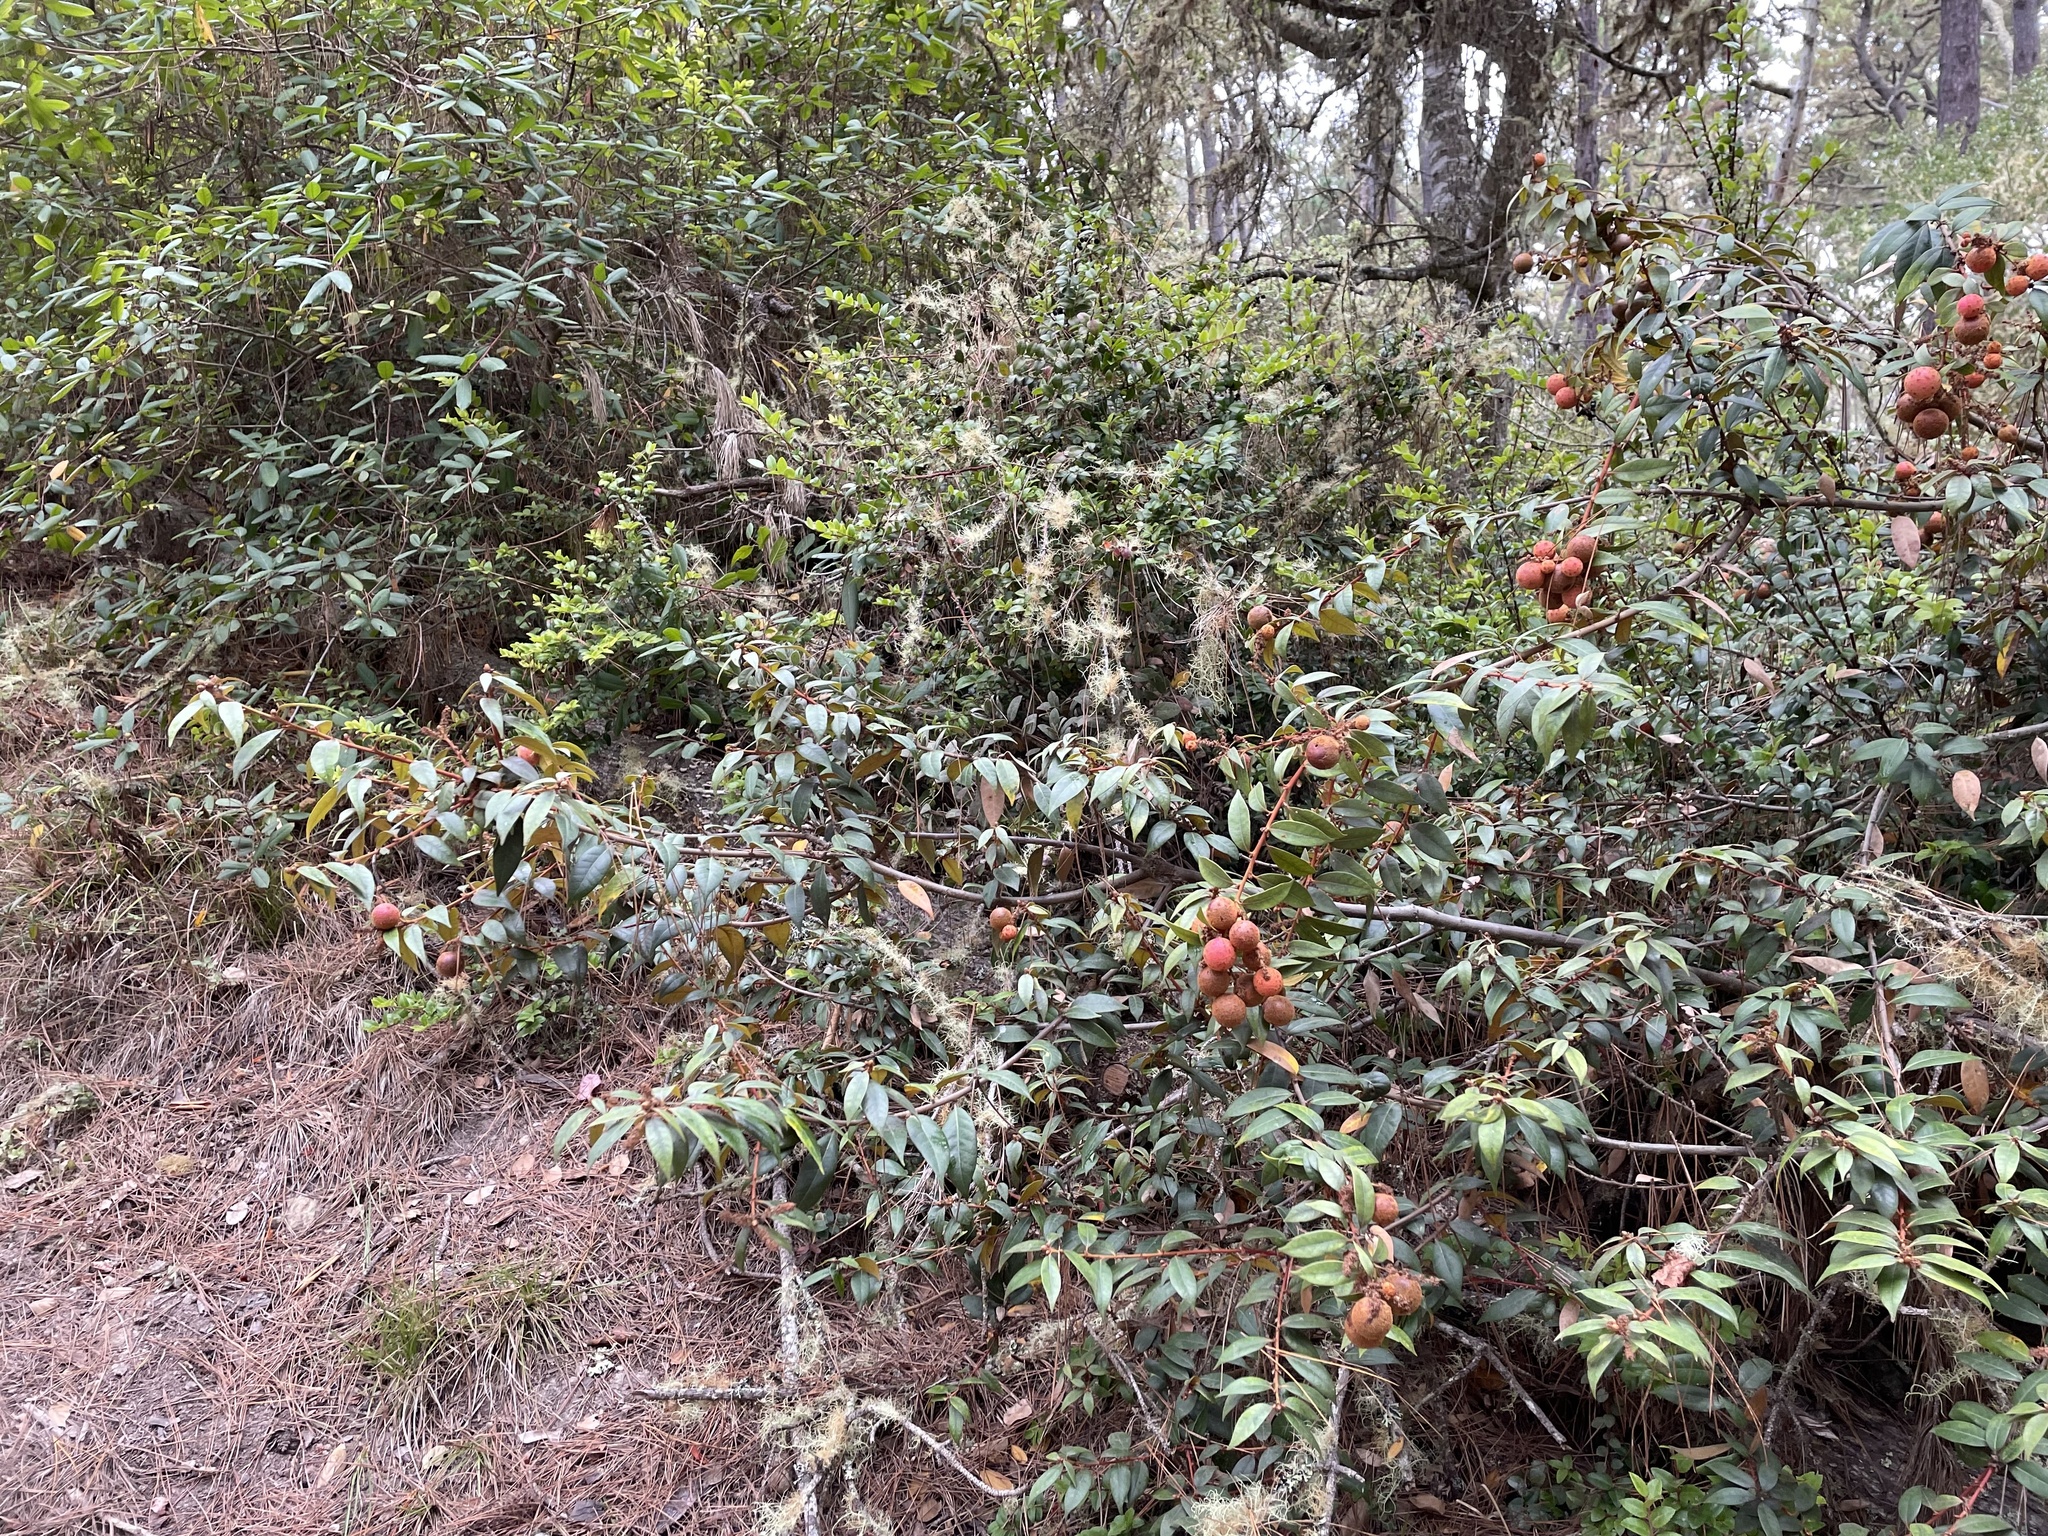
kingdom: Animalia
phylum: Arthropoda
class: Insecta
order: Hymenoptera
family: Cynipidae
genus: Synergus
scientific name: Synergus castanopsidis
